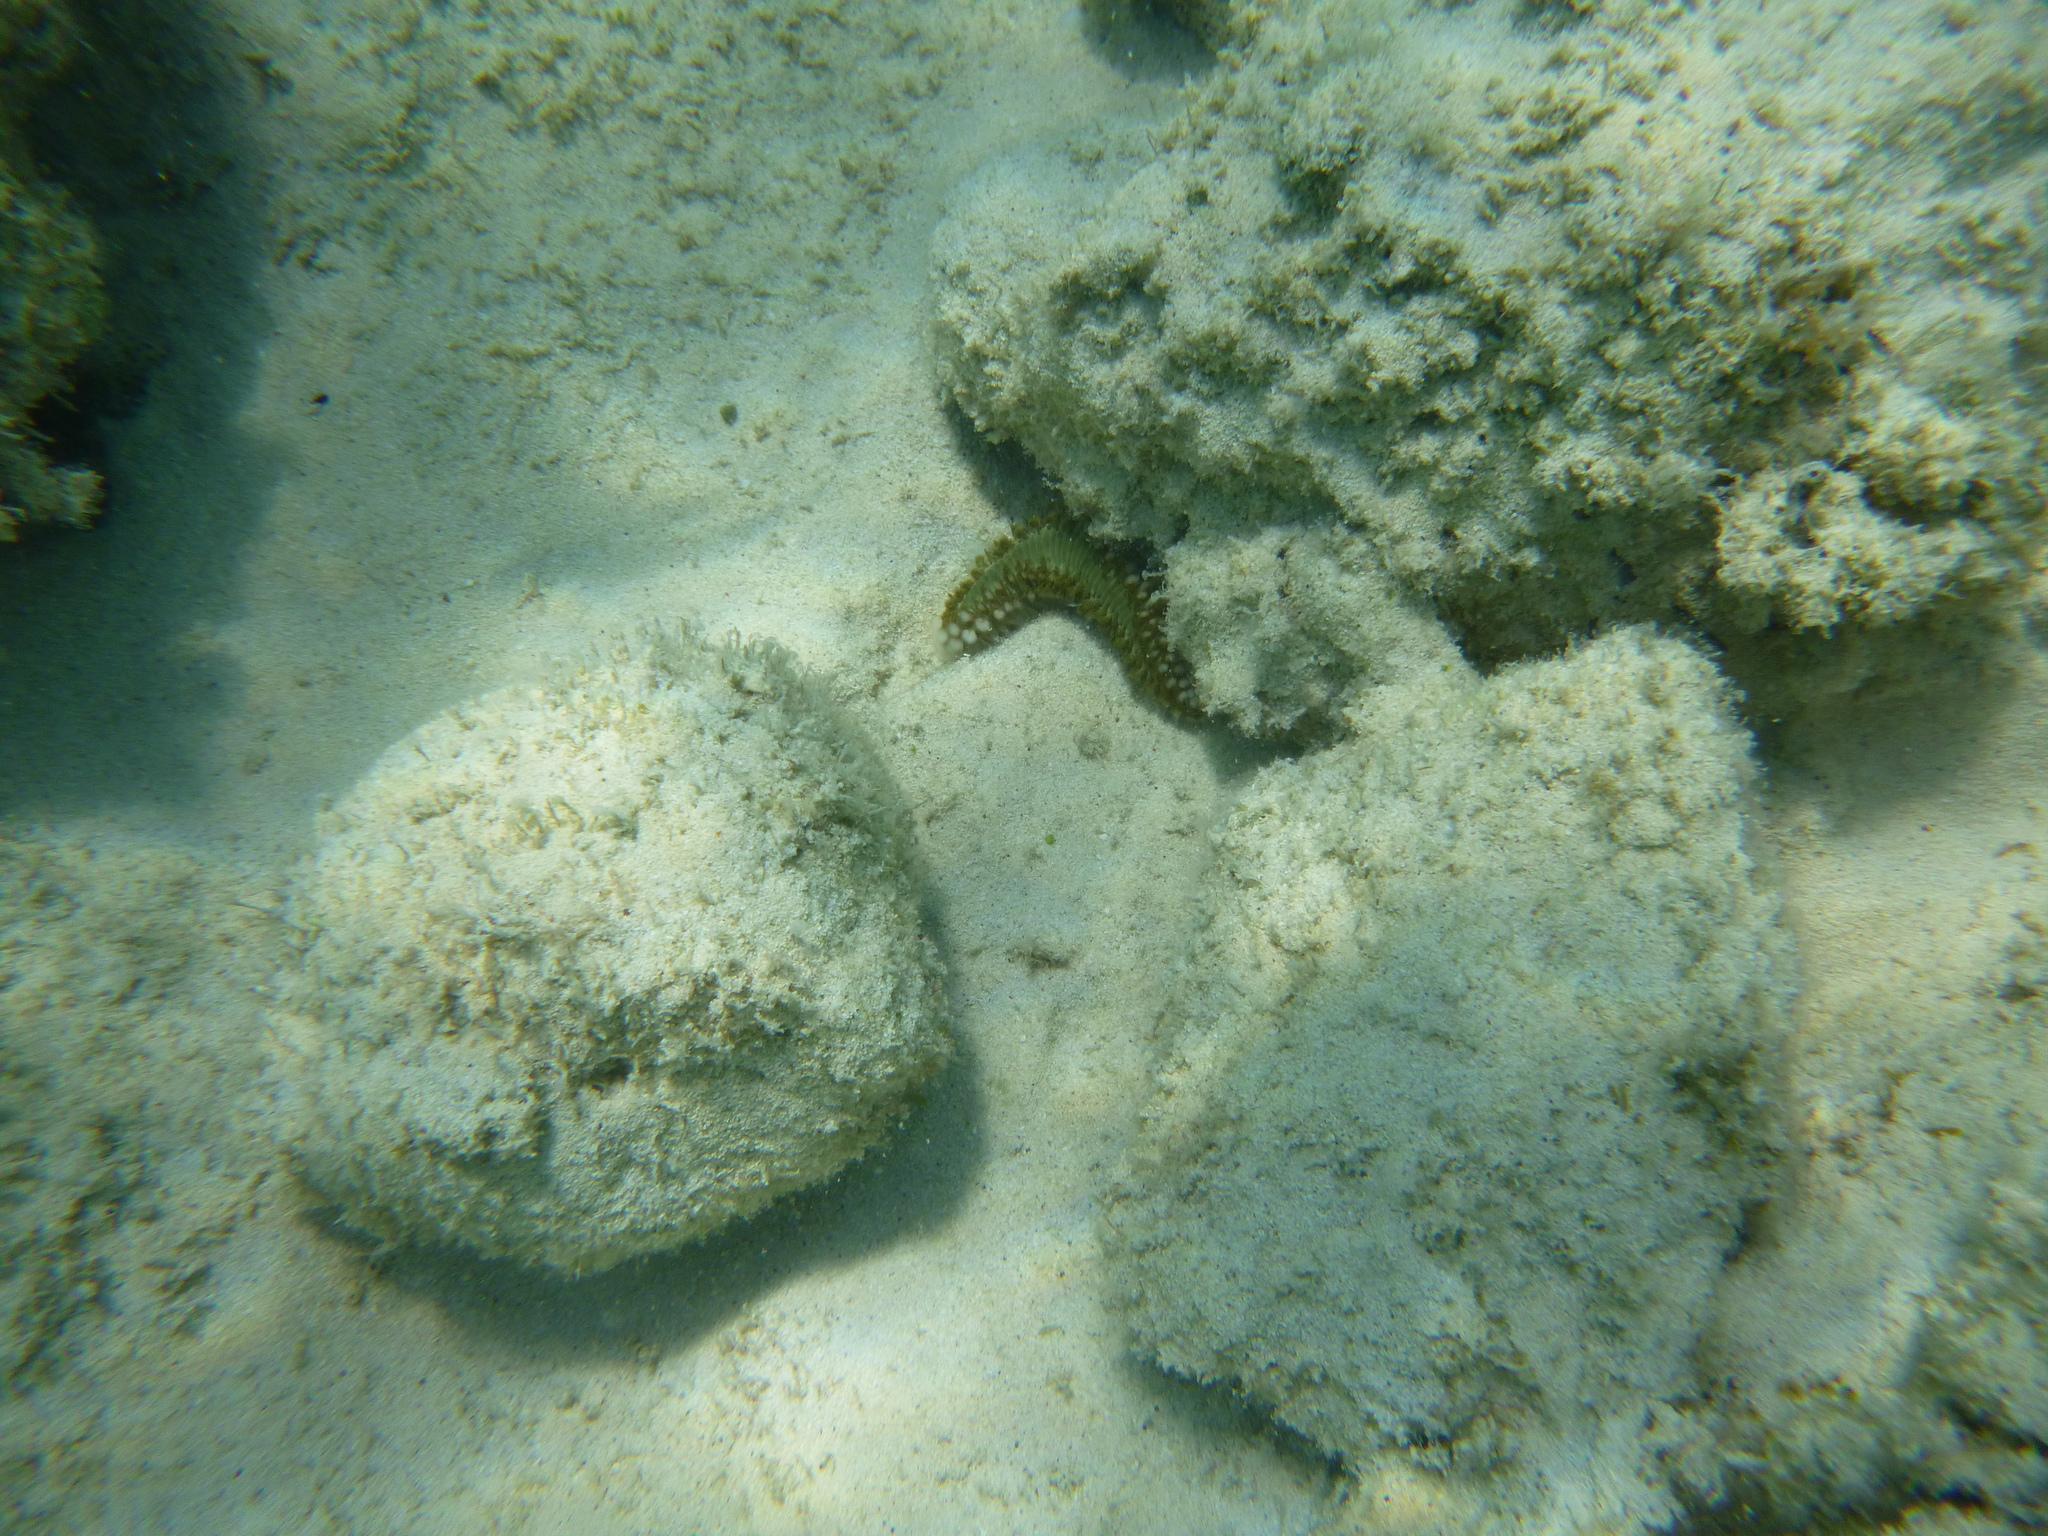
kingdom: Animalia
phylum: Annelida
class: Polychaeta
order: Amphinomida
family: Amphinomidae
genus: Hermodice
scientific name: Hermodice carunculata
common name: Bearded fireworm
